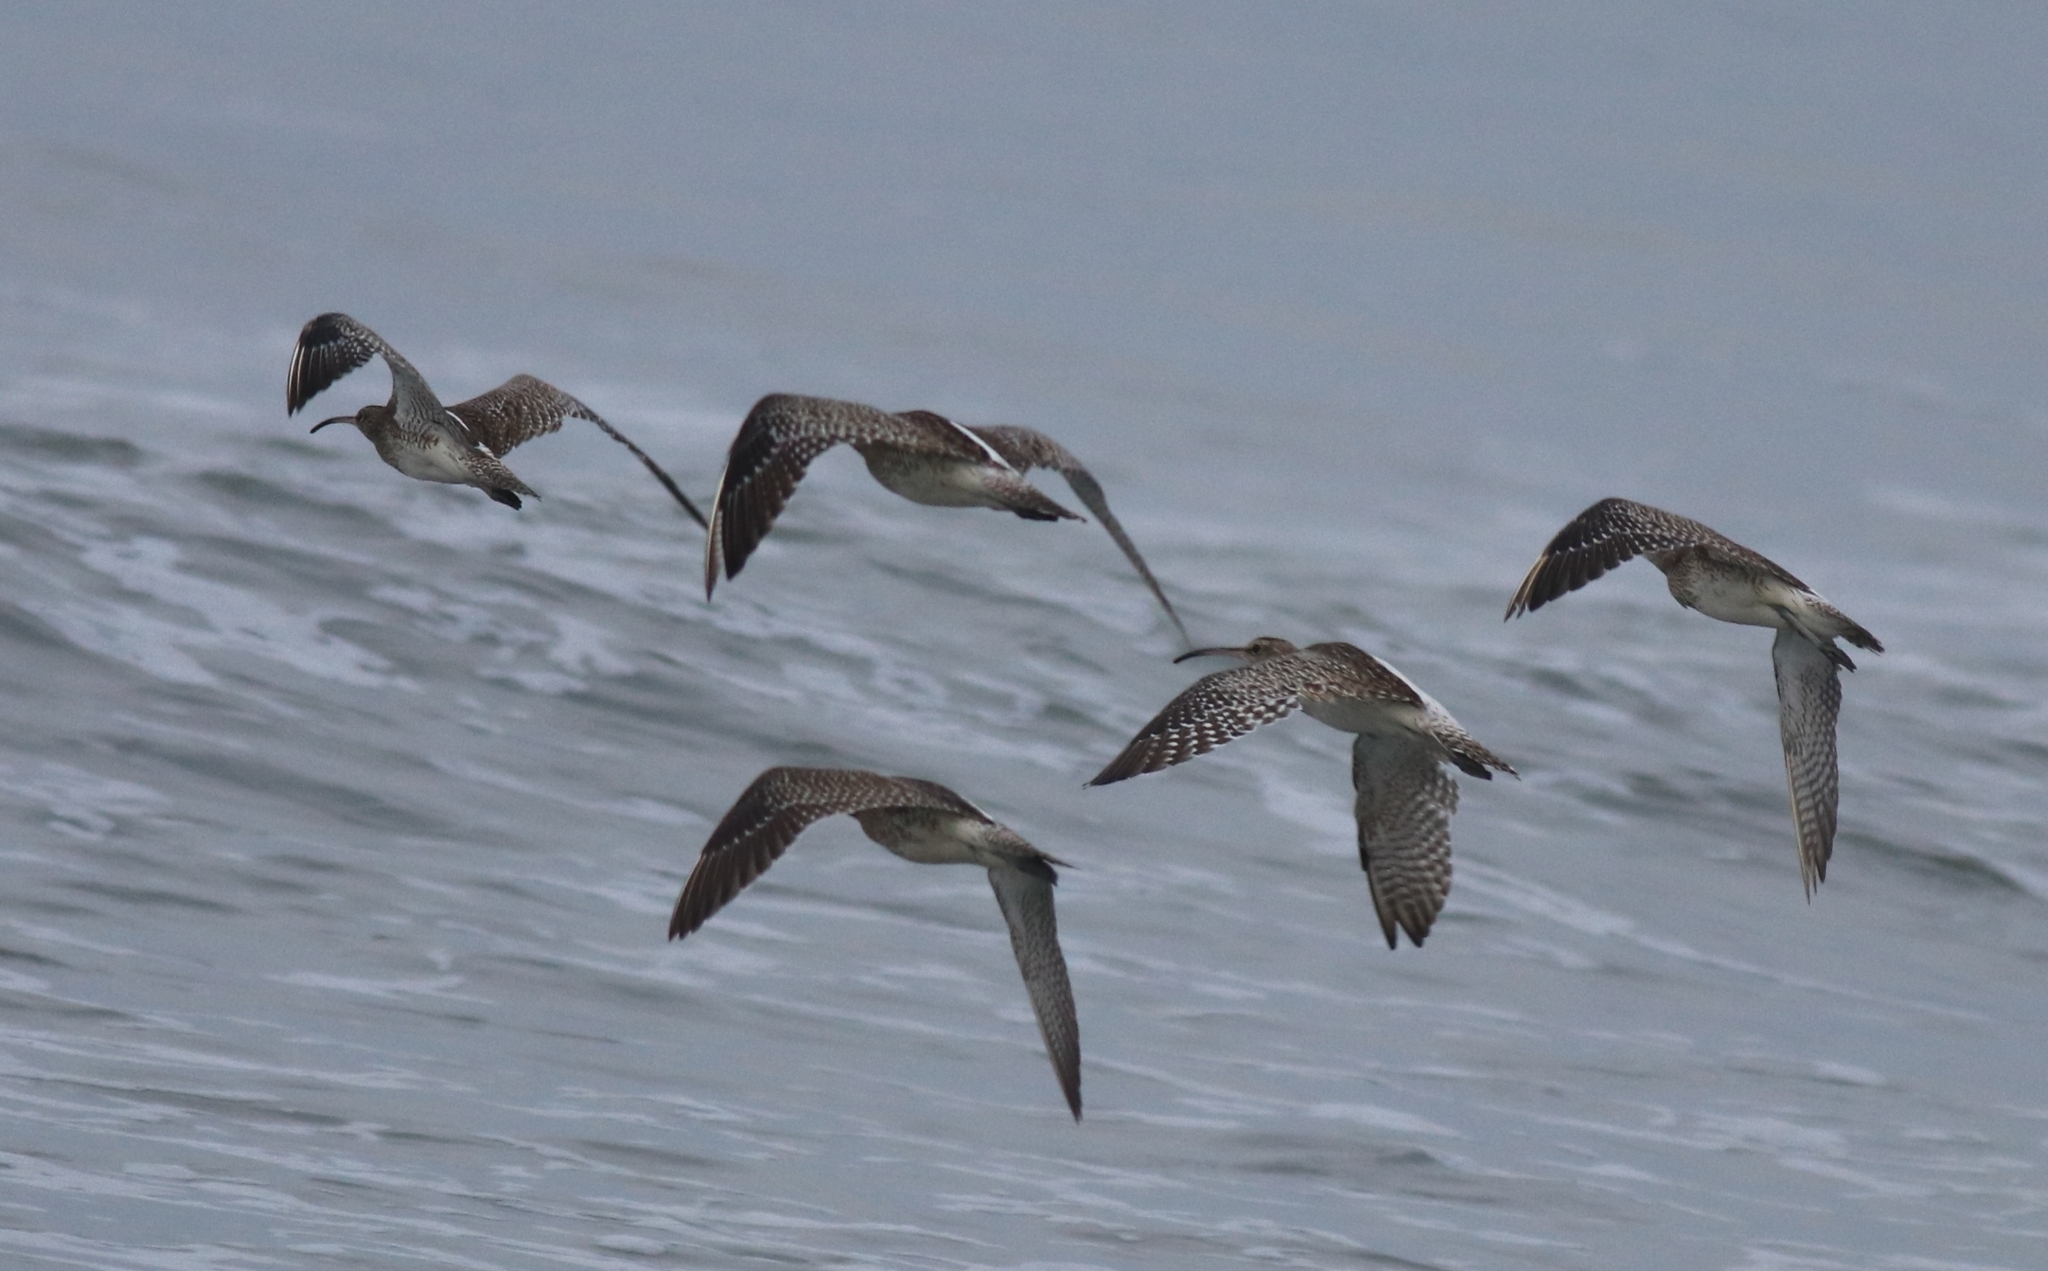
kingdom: Animalia
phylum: Chordata
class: Aves
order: Charadriiformes
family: Scolopacidae
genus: Numenius
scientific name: Numenius phaeopus
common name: Whimbrel
